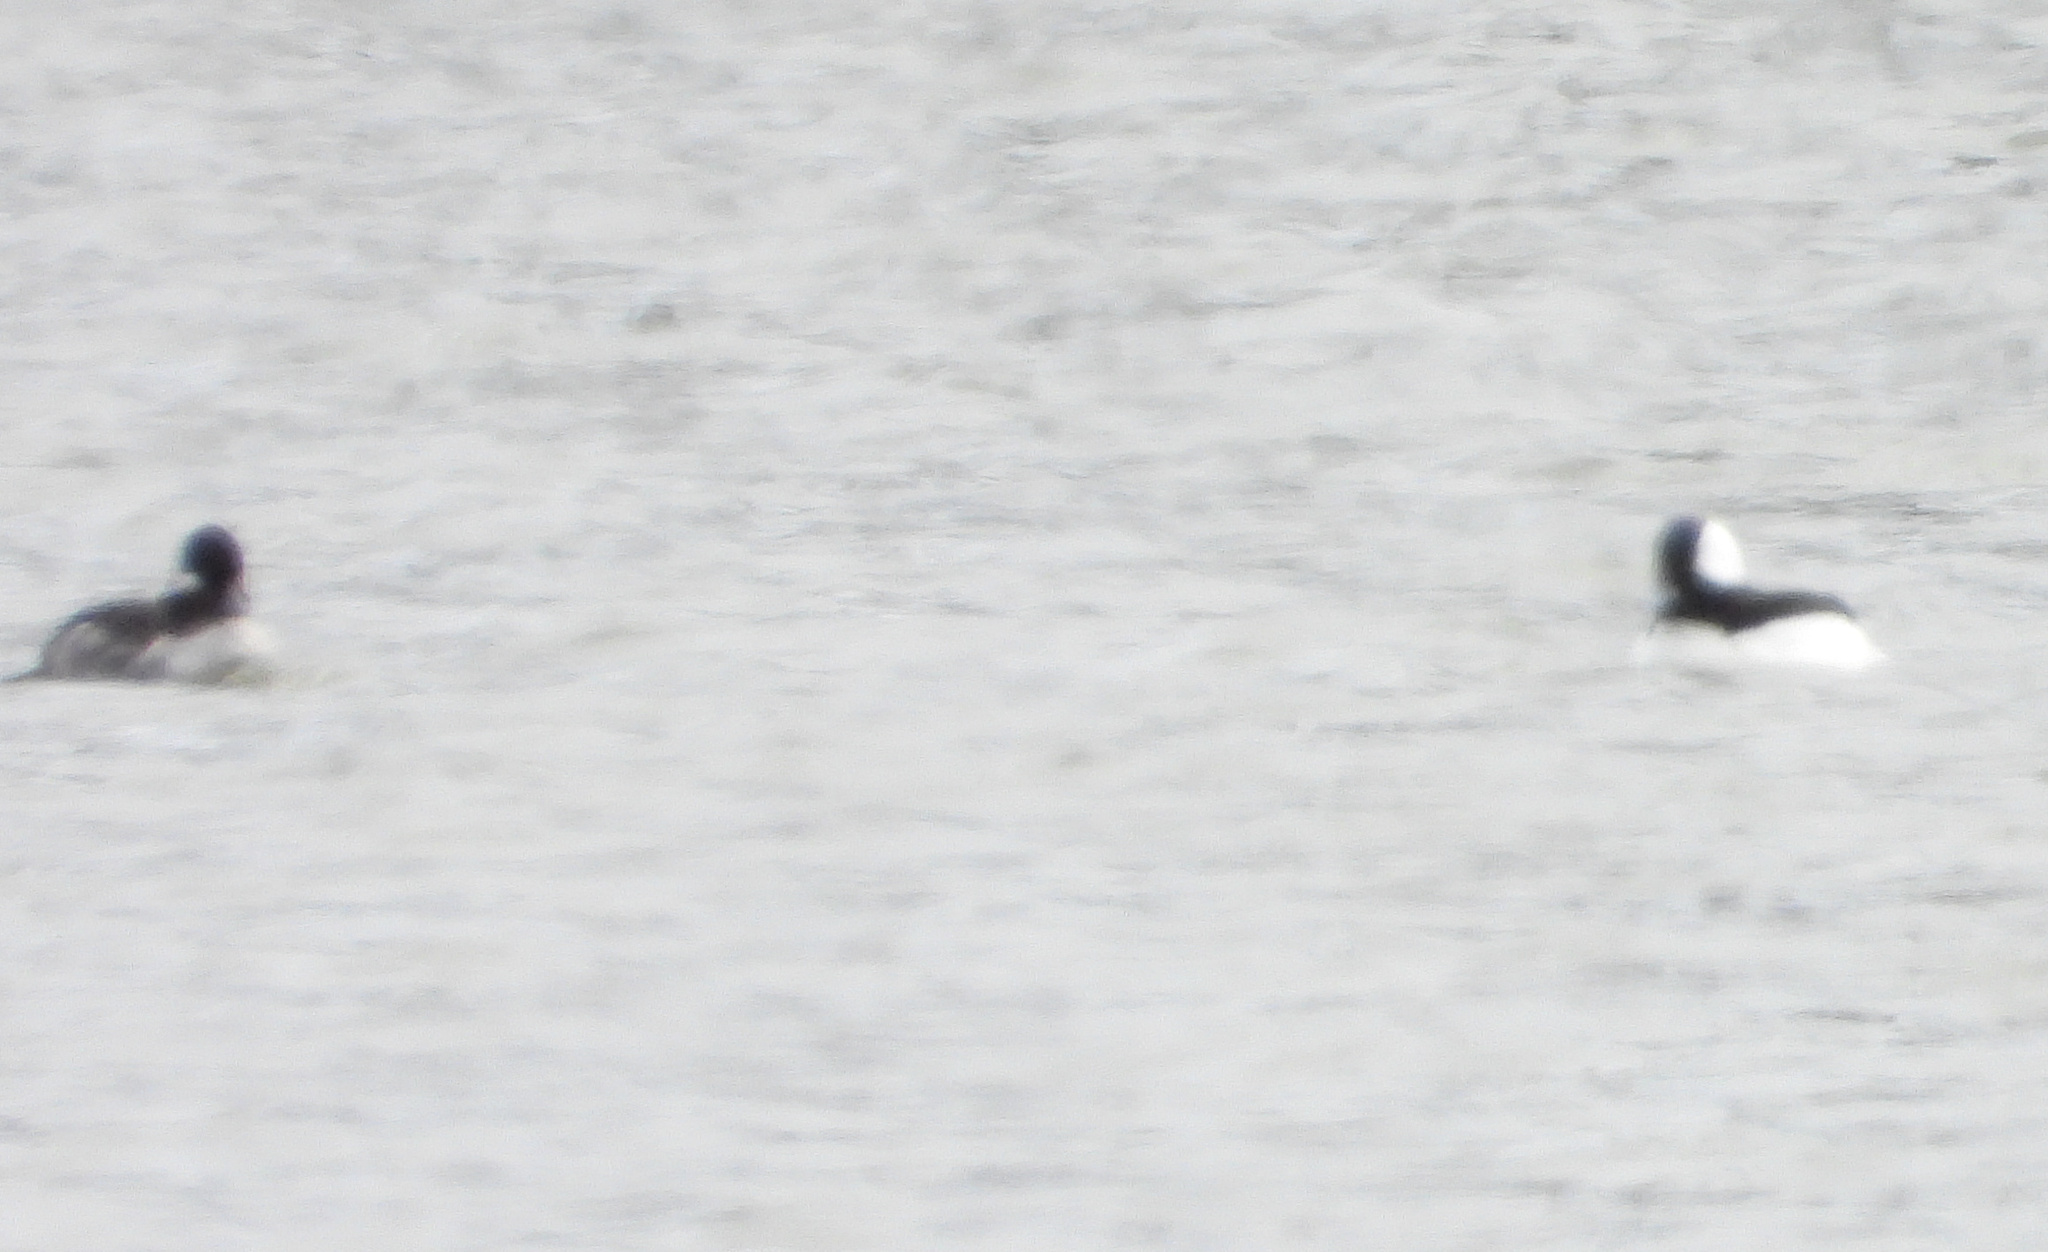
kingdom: Animalia
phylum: Chordata
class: Aves
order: Anseriformes
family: Anatidae
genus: Bucephala
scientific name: Bucephala albeola
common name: Bufflehead
